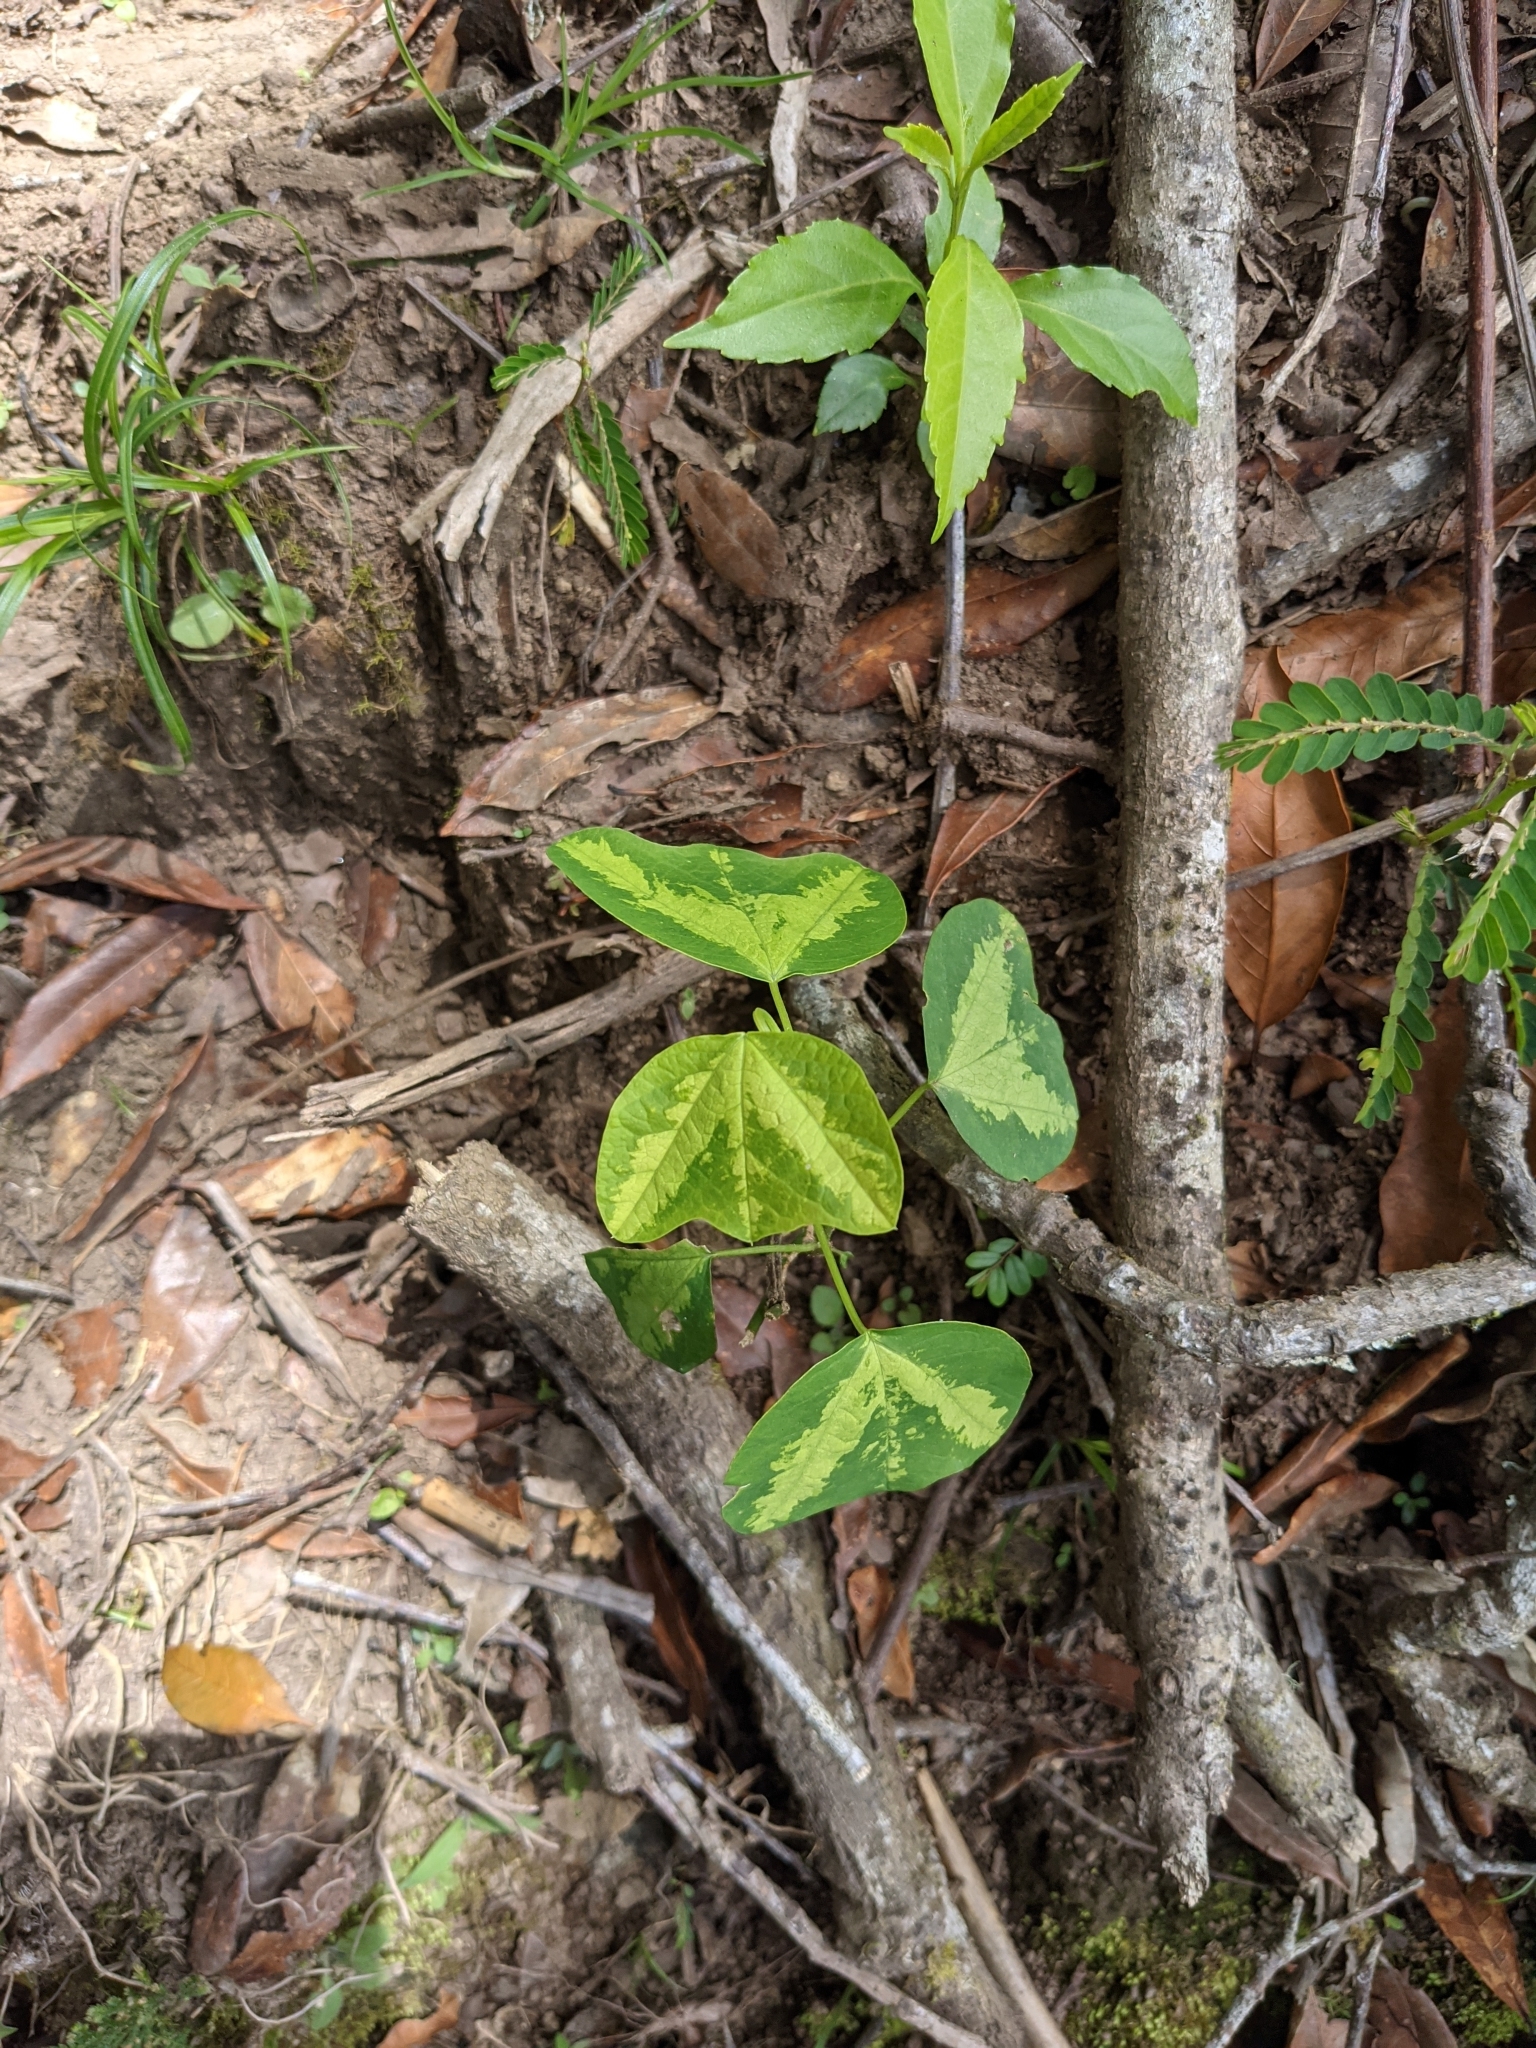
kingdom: Plantae
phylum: Tracheophyta
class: Magnoliopsida
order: Malpighiales
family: Passifloraceae
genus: Passiflora
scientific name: Passiflora apetala
